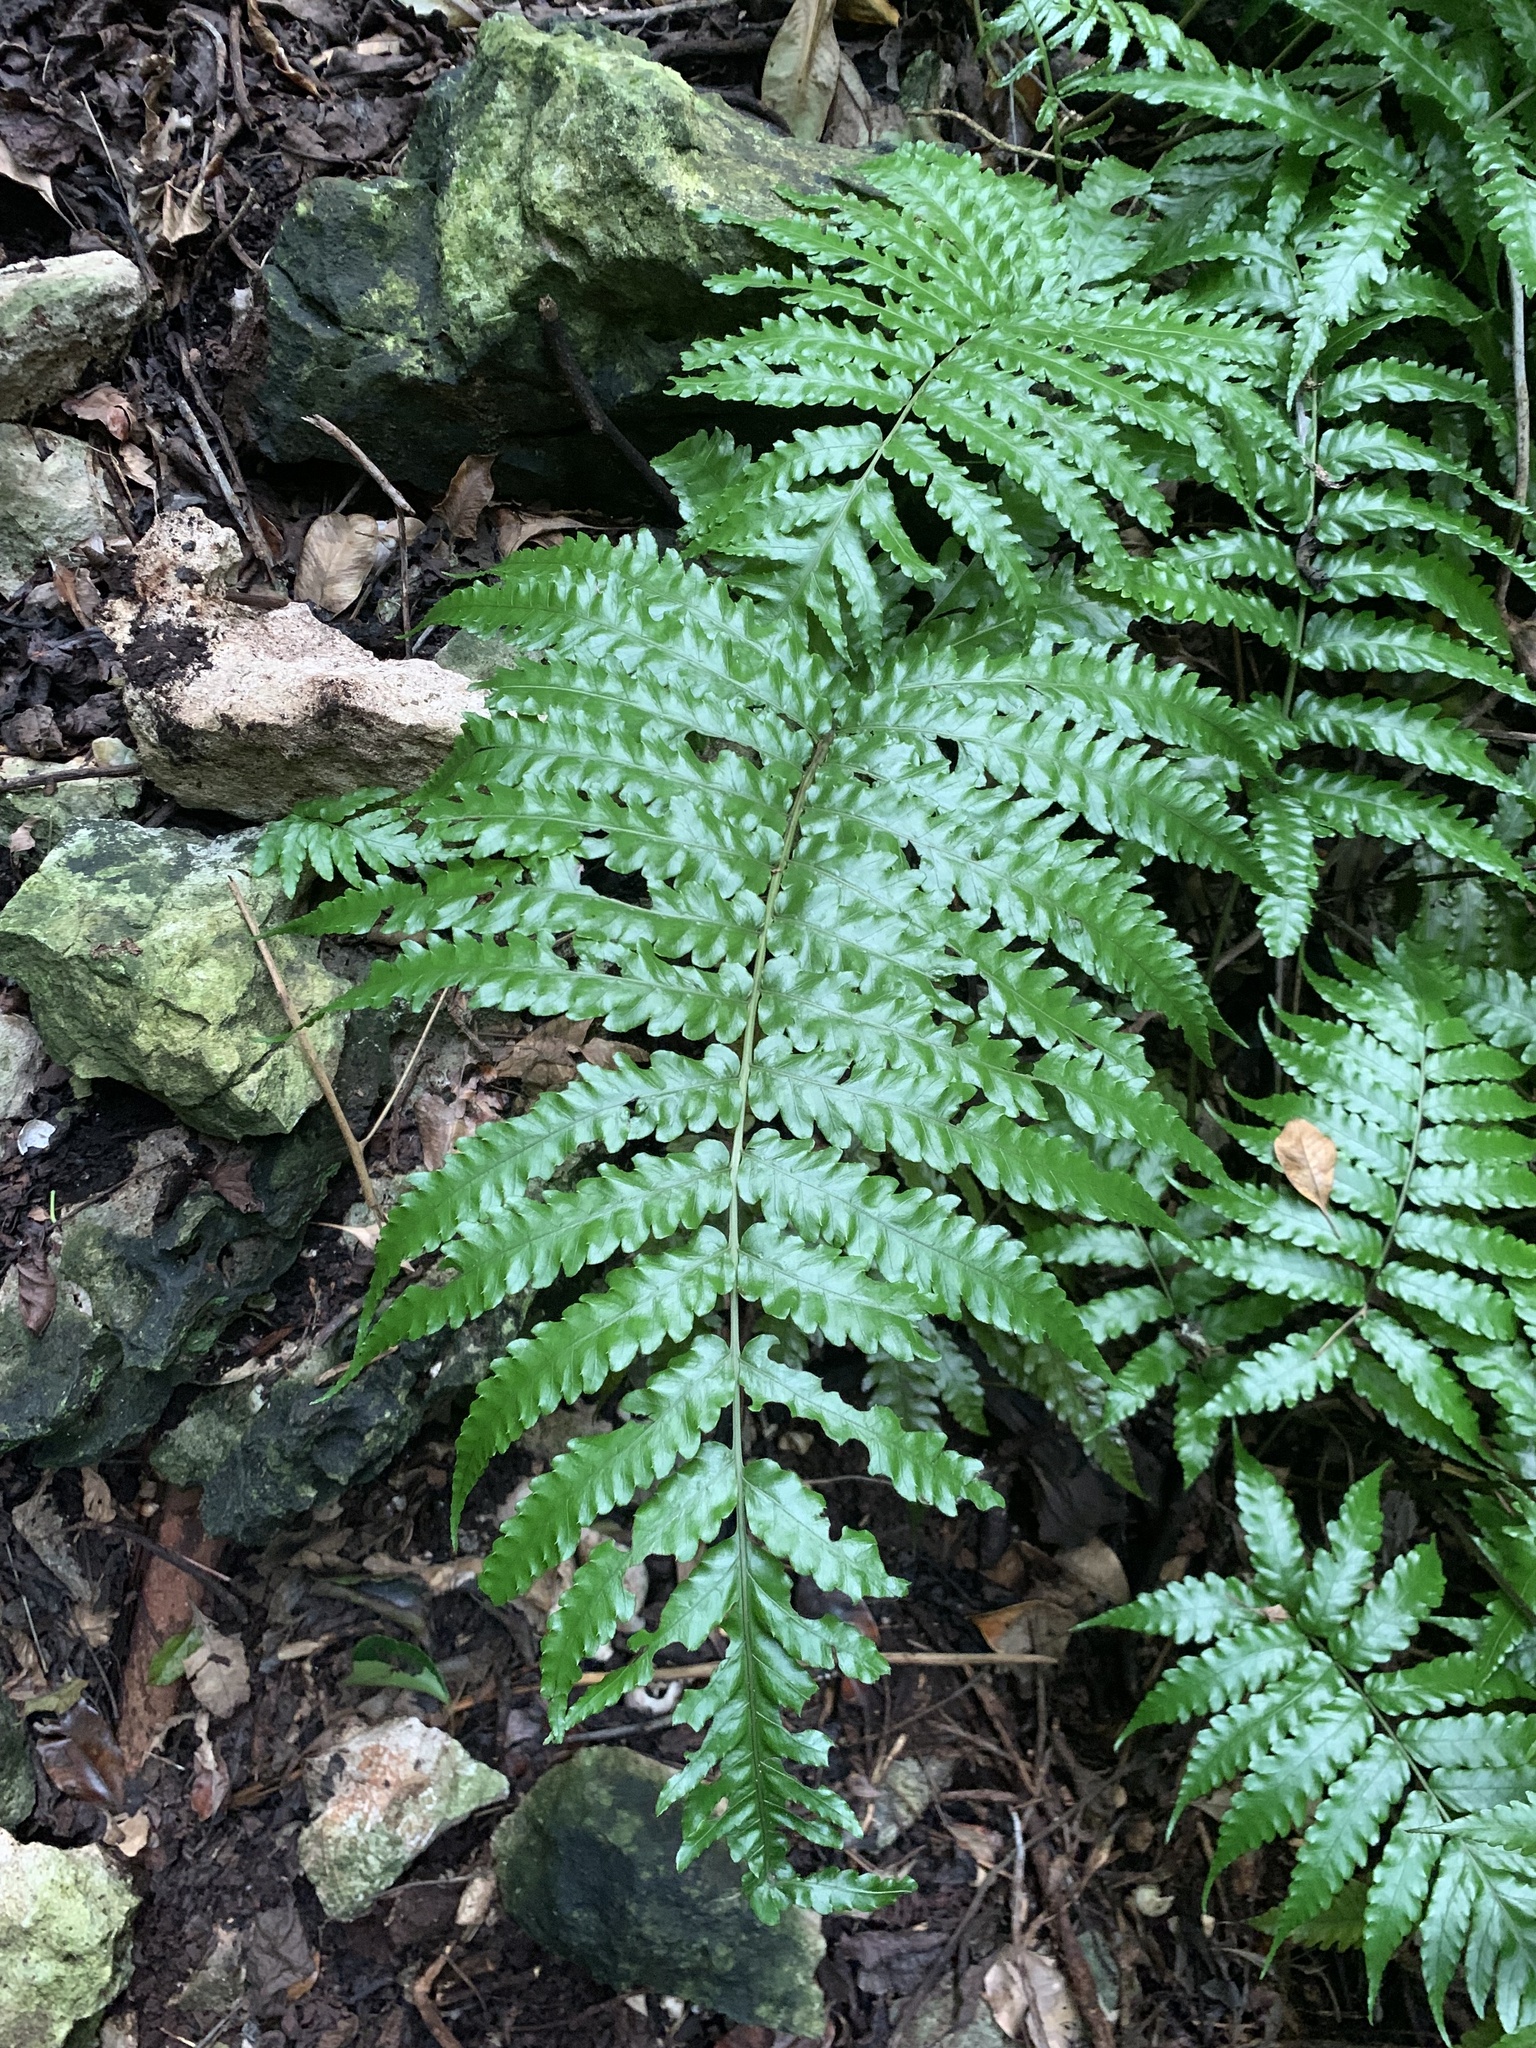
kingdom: Plantae
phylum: Tracheophyta
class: Polypodiopsida
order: Polypodiales
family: Dryopteridaceae
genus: Bolbitis
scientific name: Bolbitis quoyana
